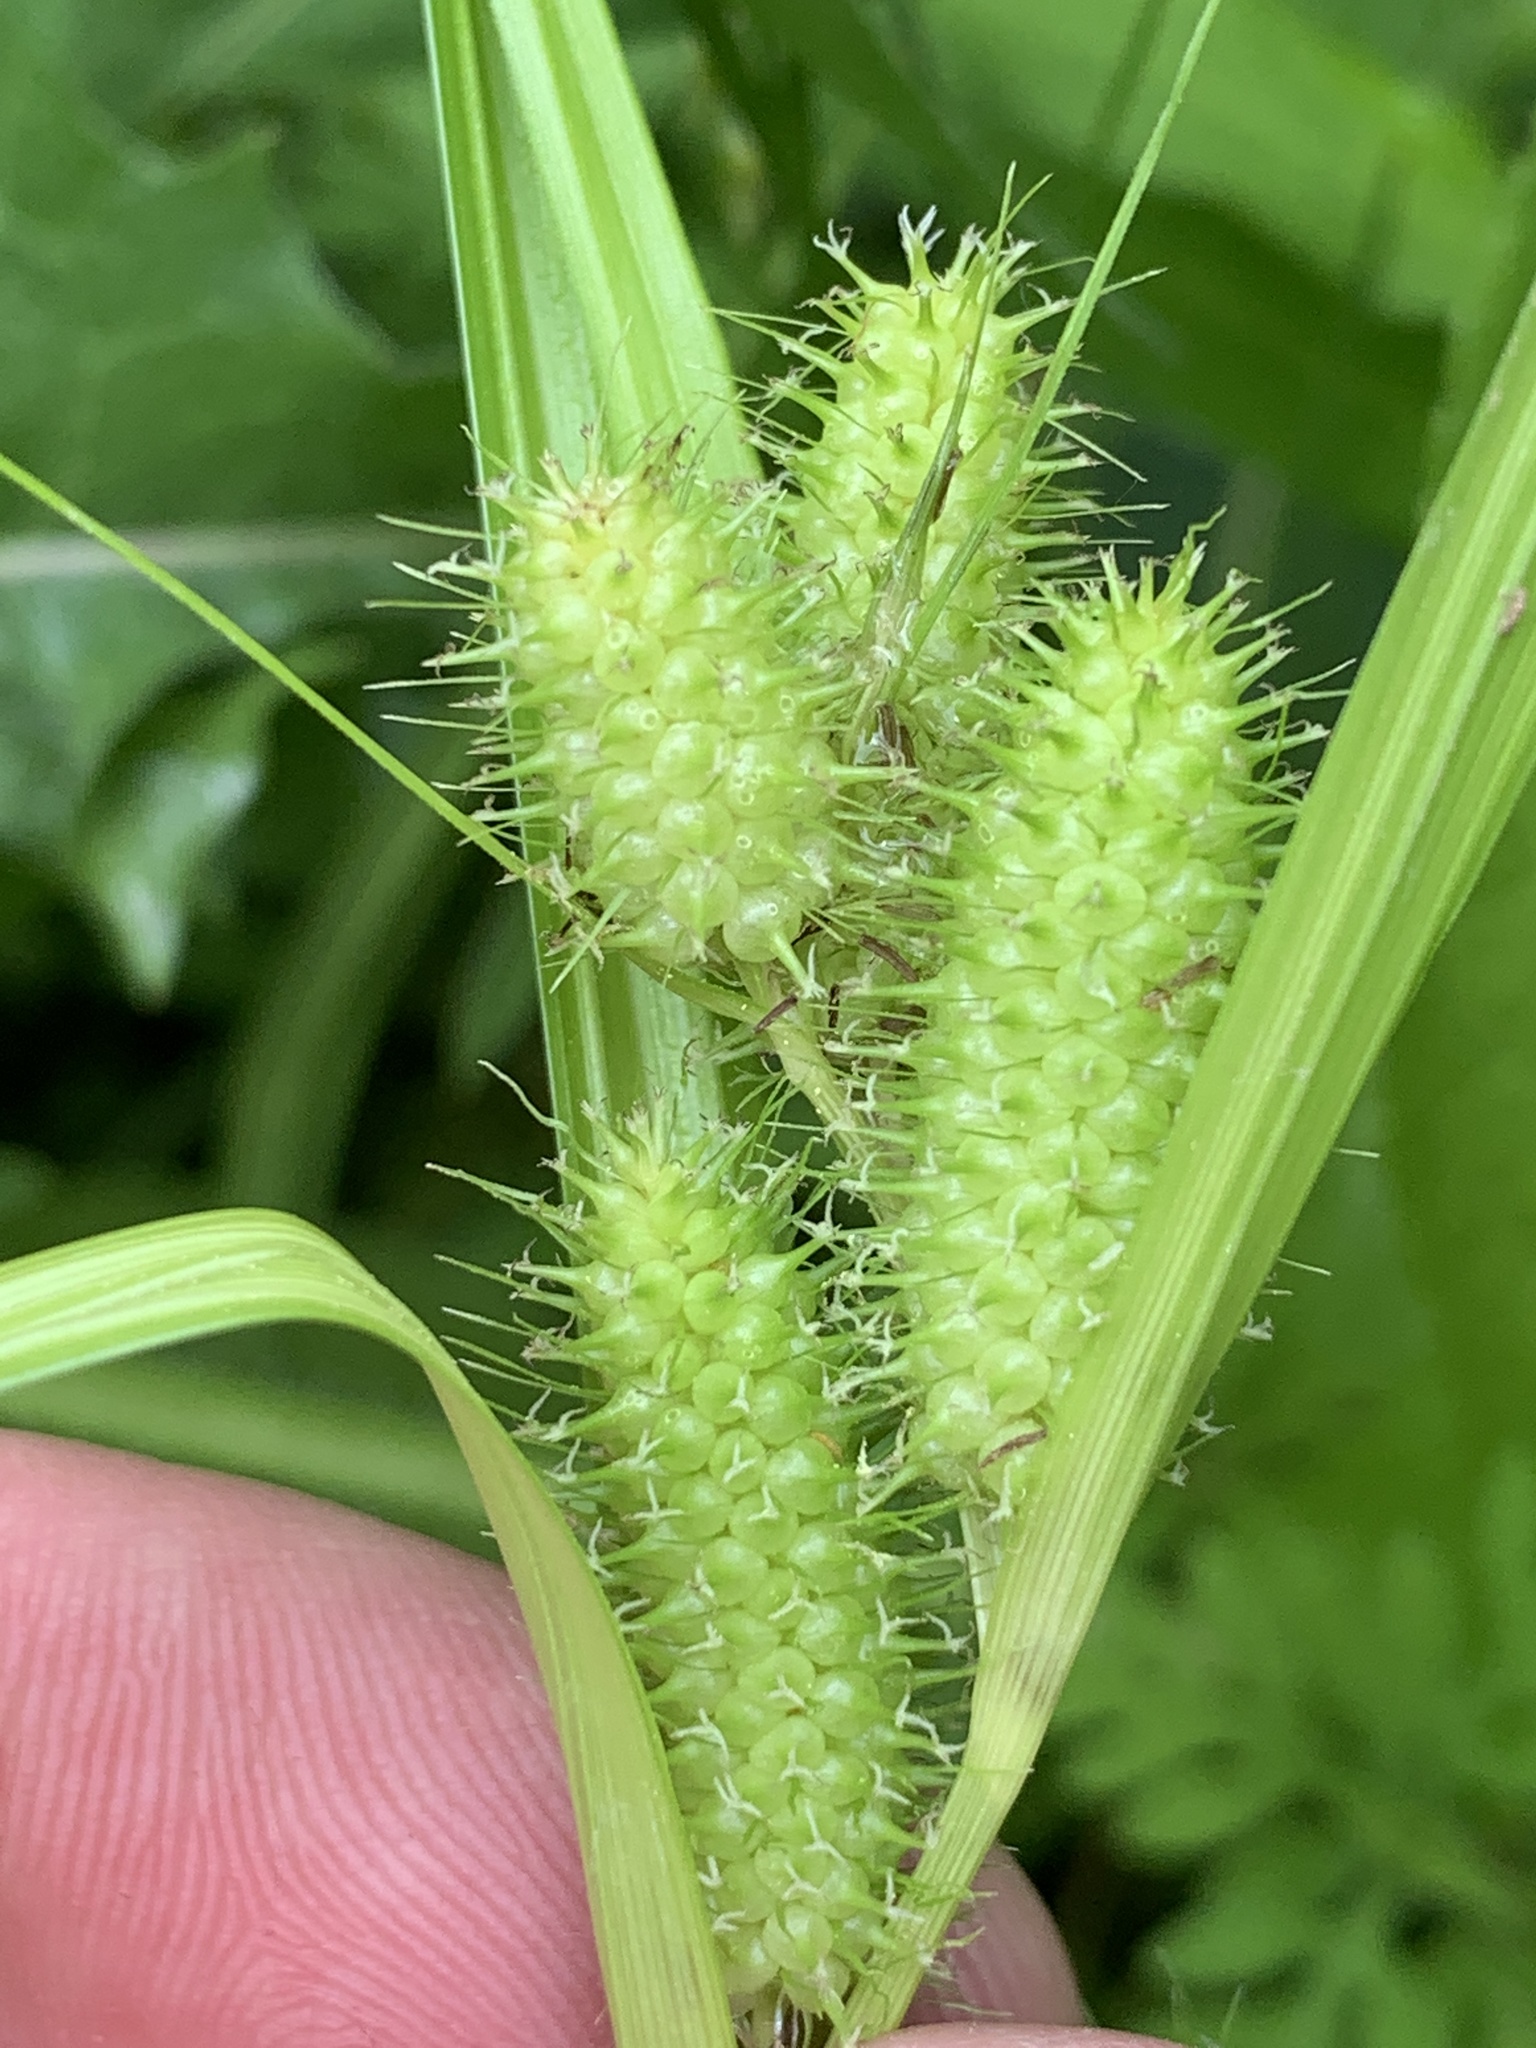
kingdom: Plantae
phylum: Tracheophyta
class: Liliopsida
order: Poales
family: Cyperaceae
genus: Carex
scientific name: Carex frankii
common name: Frank's sedge
